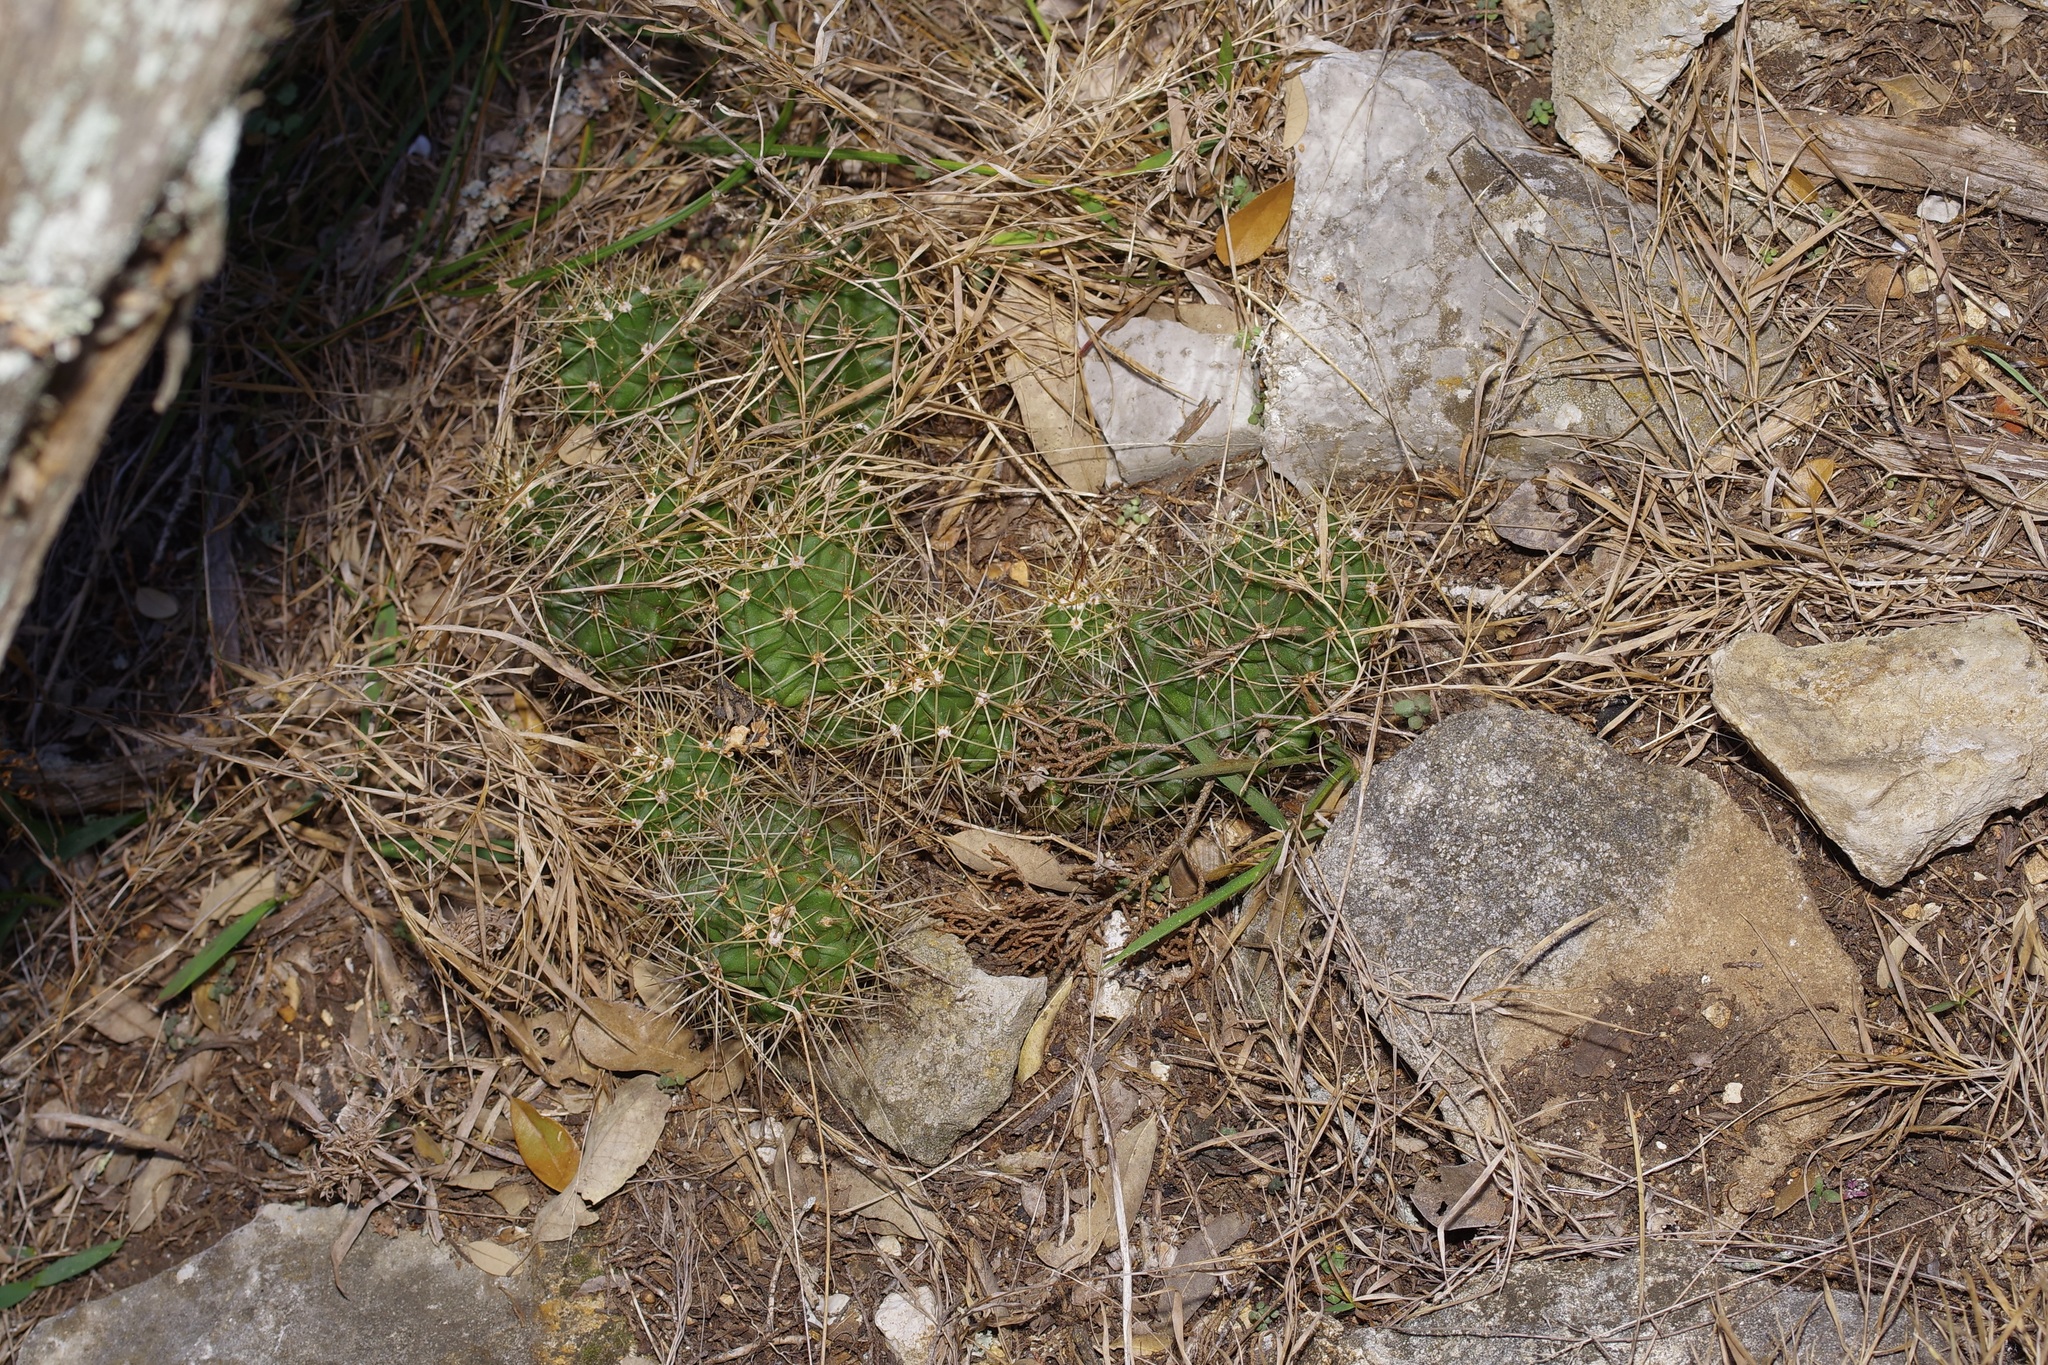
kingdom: Plantae
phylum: Tracheophyta
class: Magnoliopsida
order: Caryophyllales
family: Cactaceae
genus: Echinocereus
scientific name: Echinocereus coccineus
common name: Scarlet hedgehog cactus
